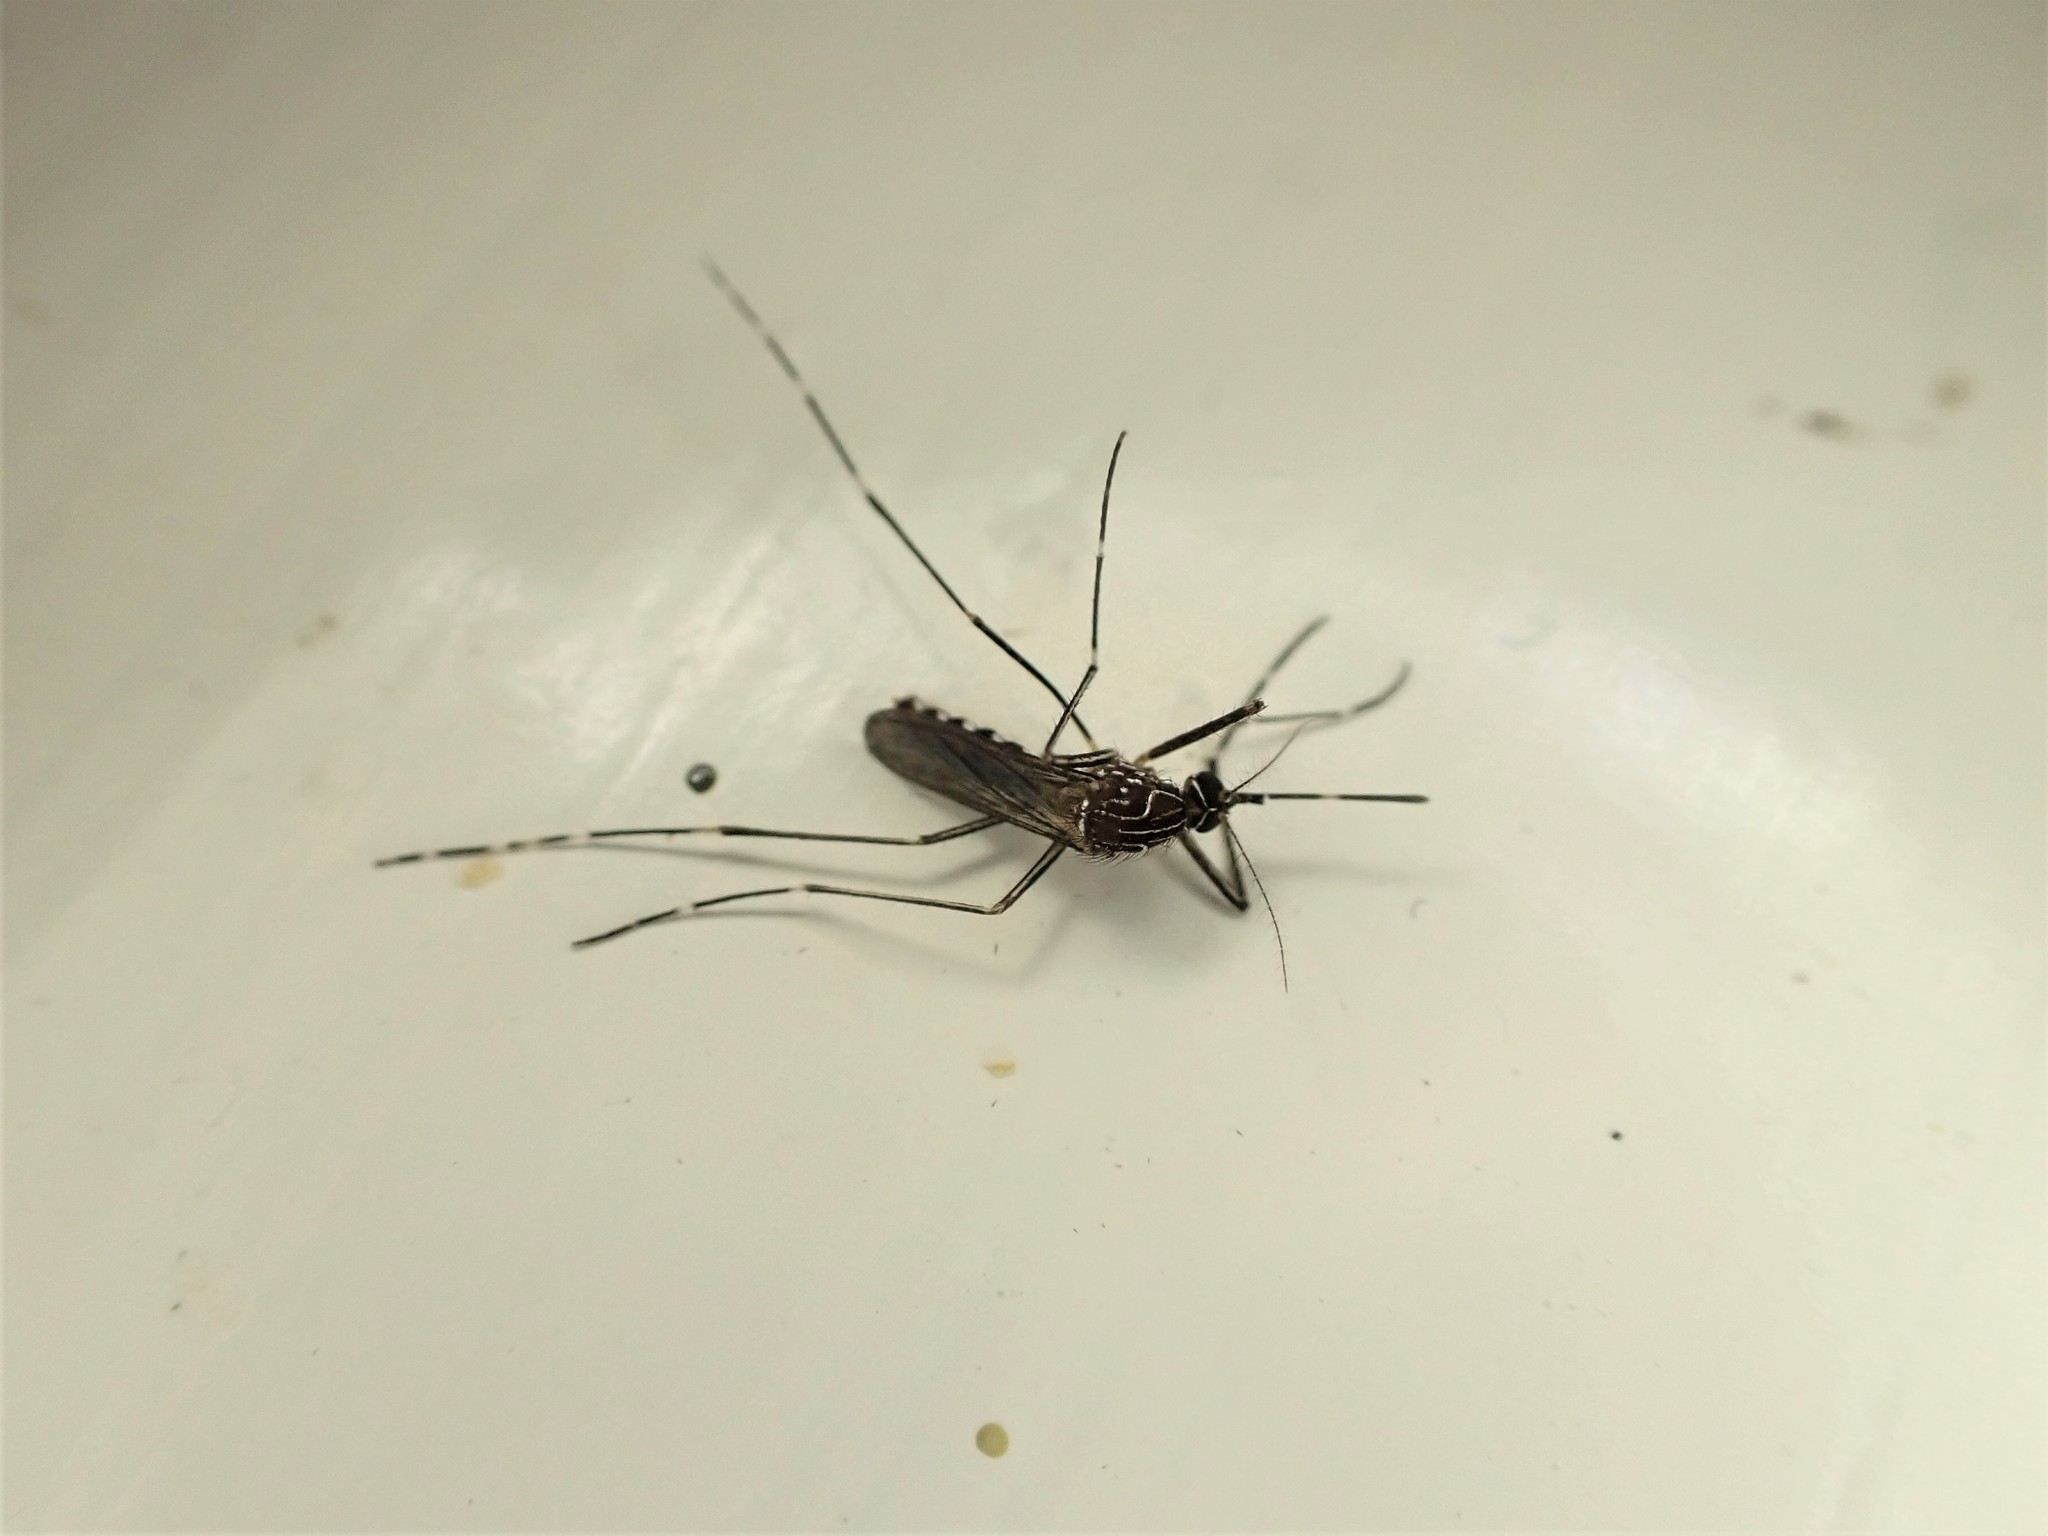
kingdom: Animalia
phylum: Arthropoda
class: Insecta
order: Diptera
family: Culicidae
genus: Aedes
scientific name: Aedes notoscriptus
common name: Australian backyard mosquito
